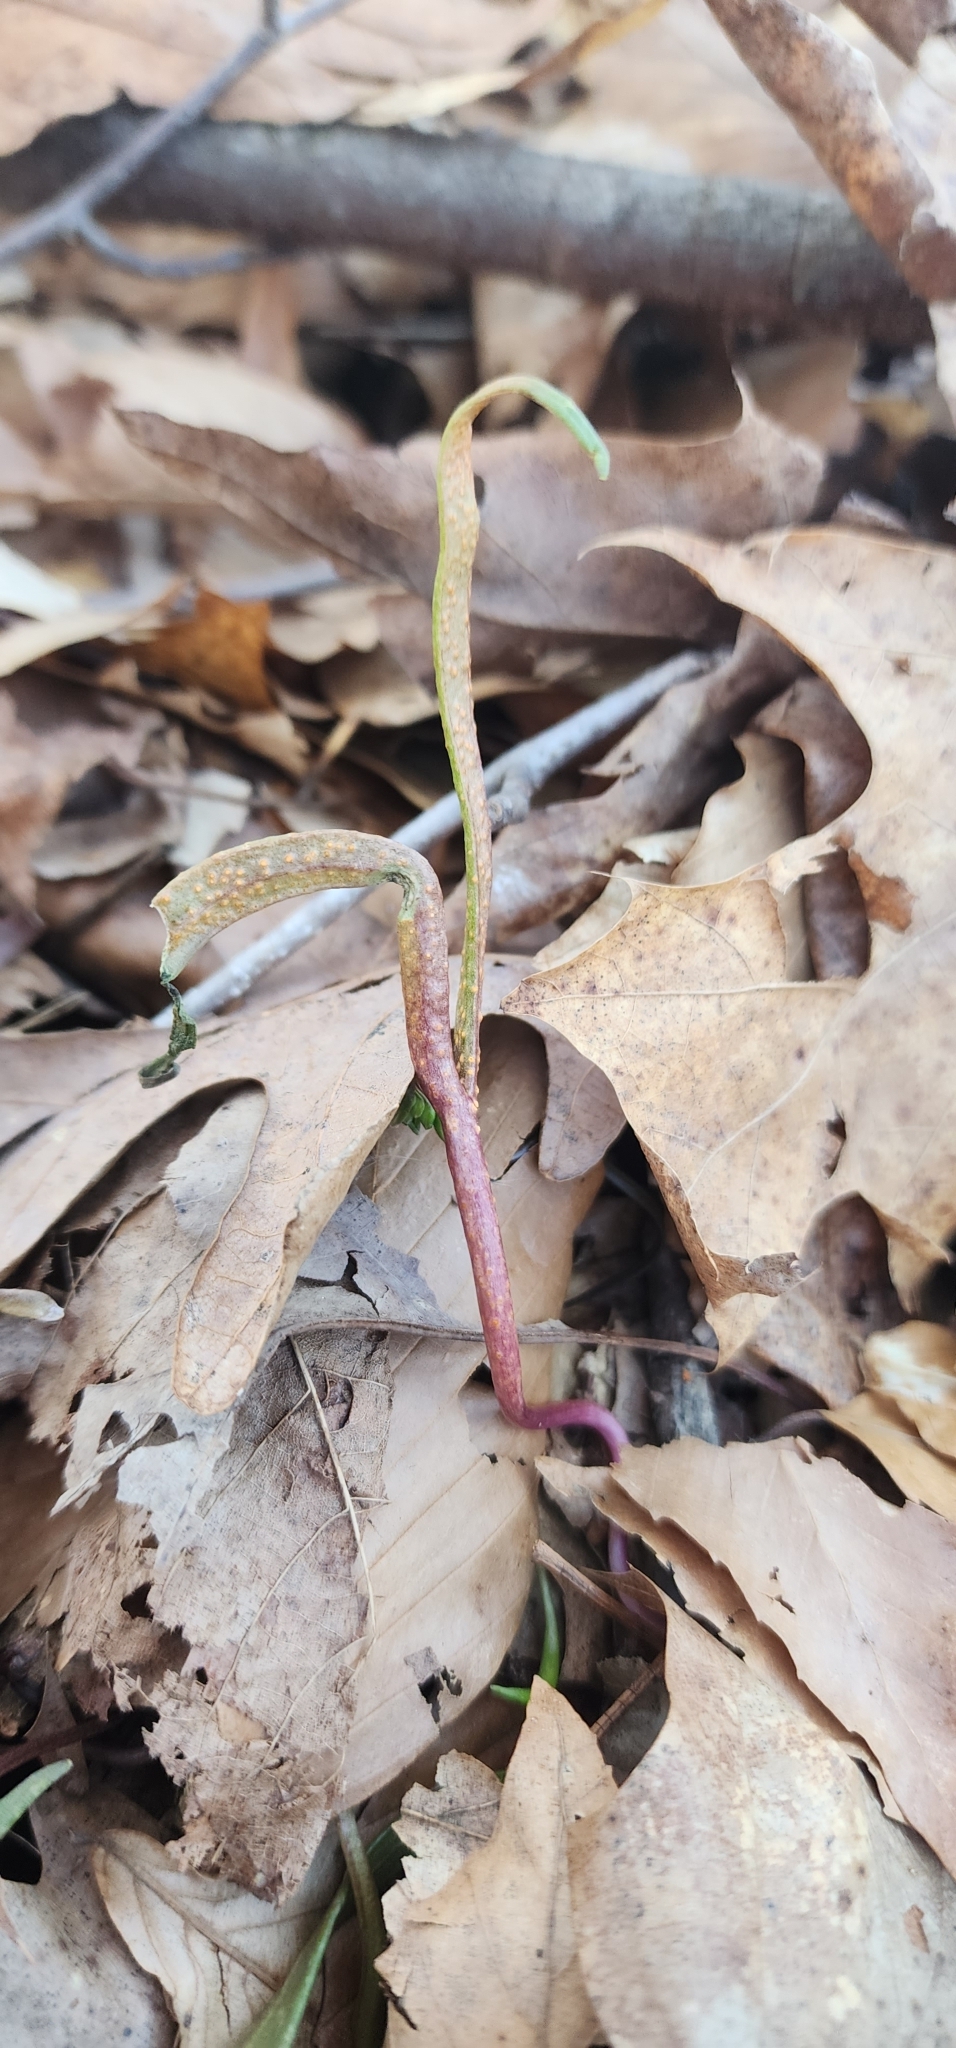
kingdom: Plantae
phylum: Tracheophyta
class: Magnoliopsida
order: Caryophyllales
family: Montiaceae
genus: Claytonia
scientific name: Claytonia virginica
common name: Virginia springbeauty
